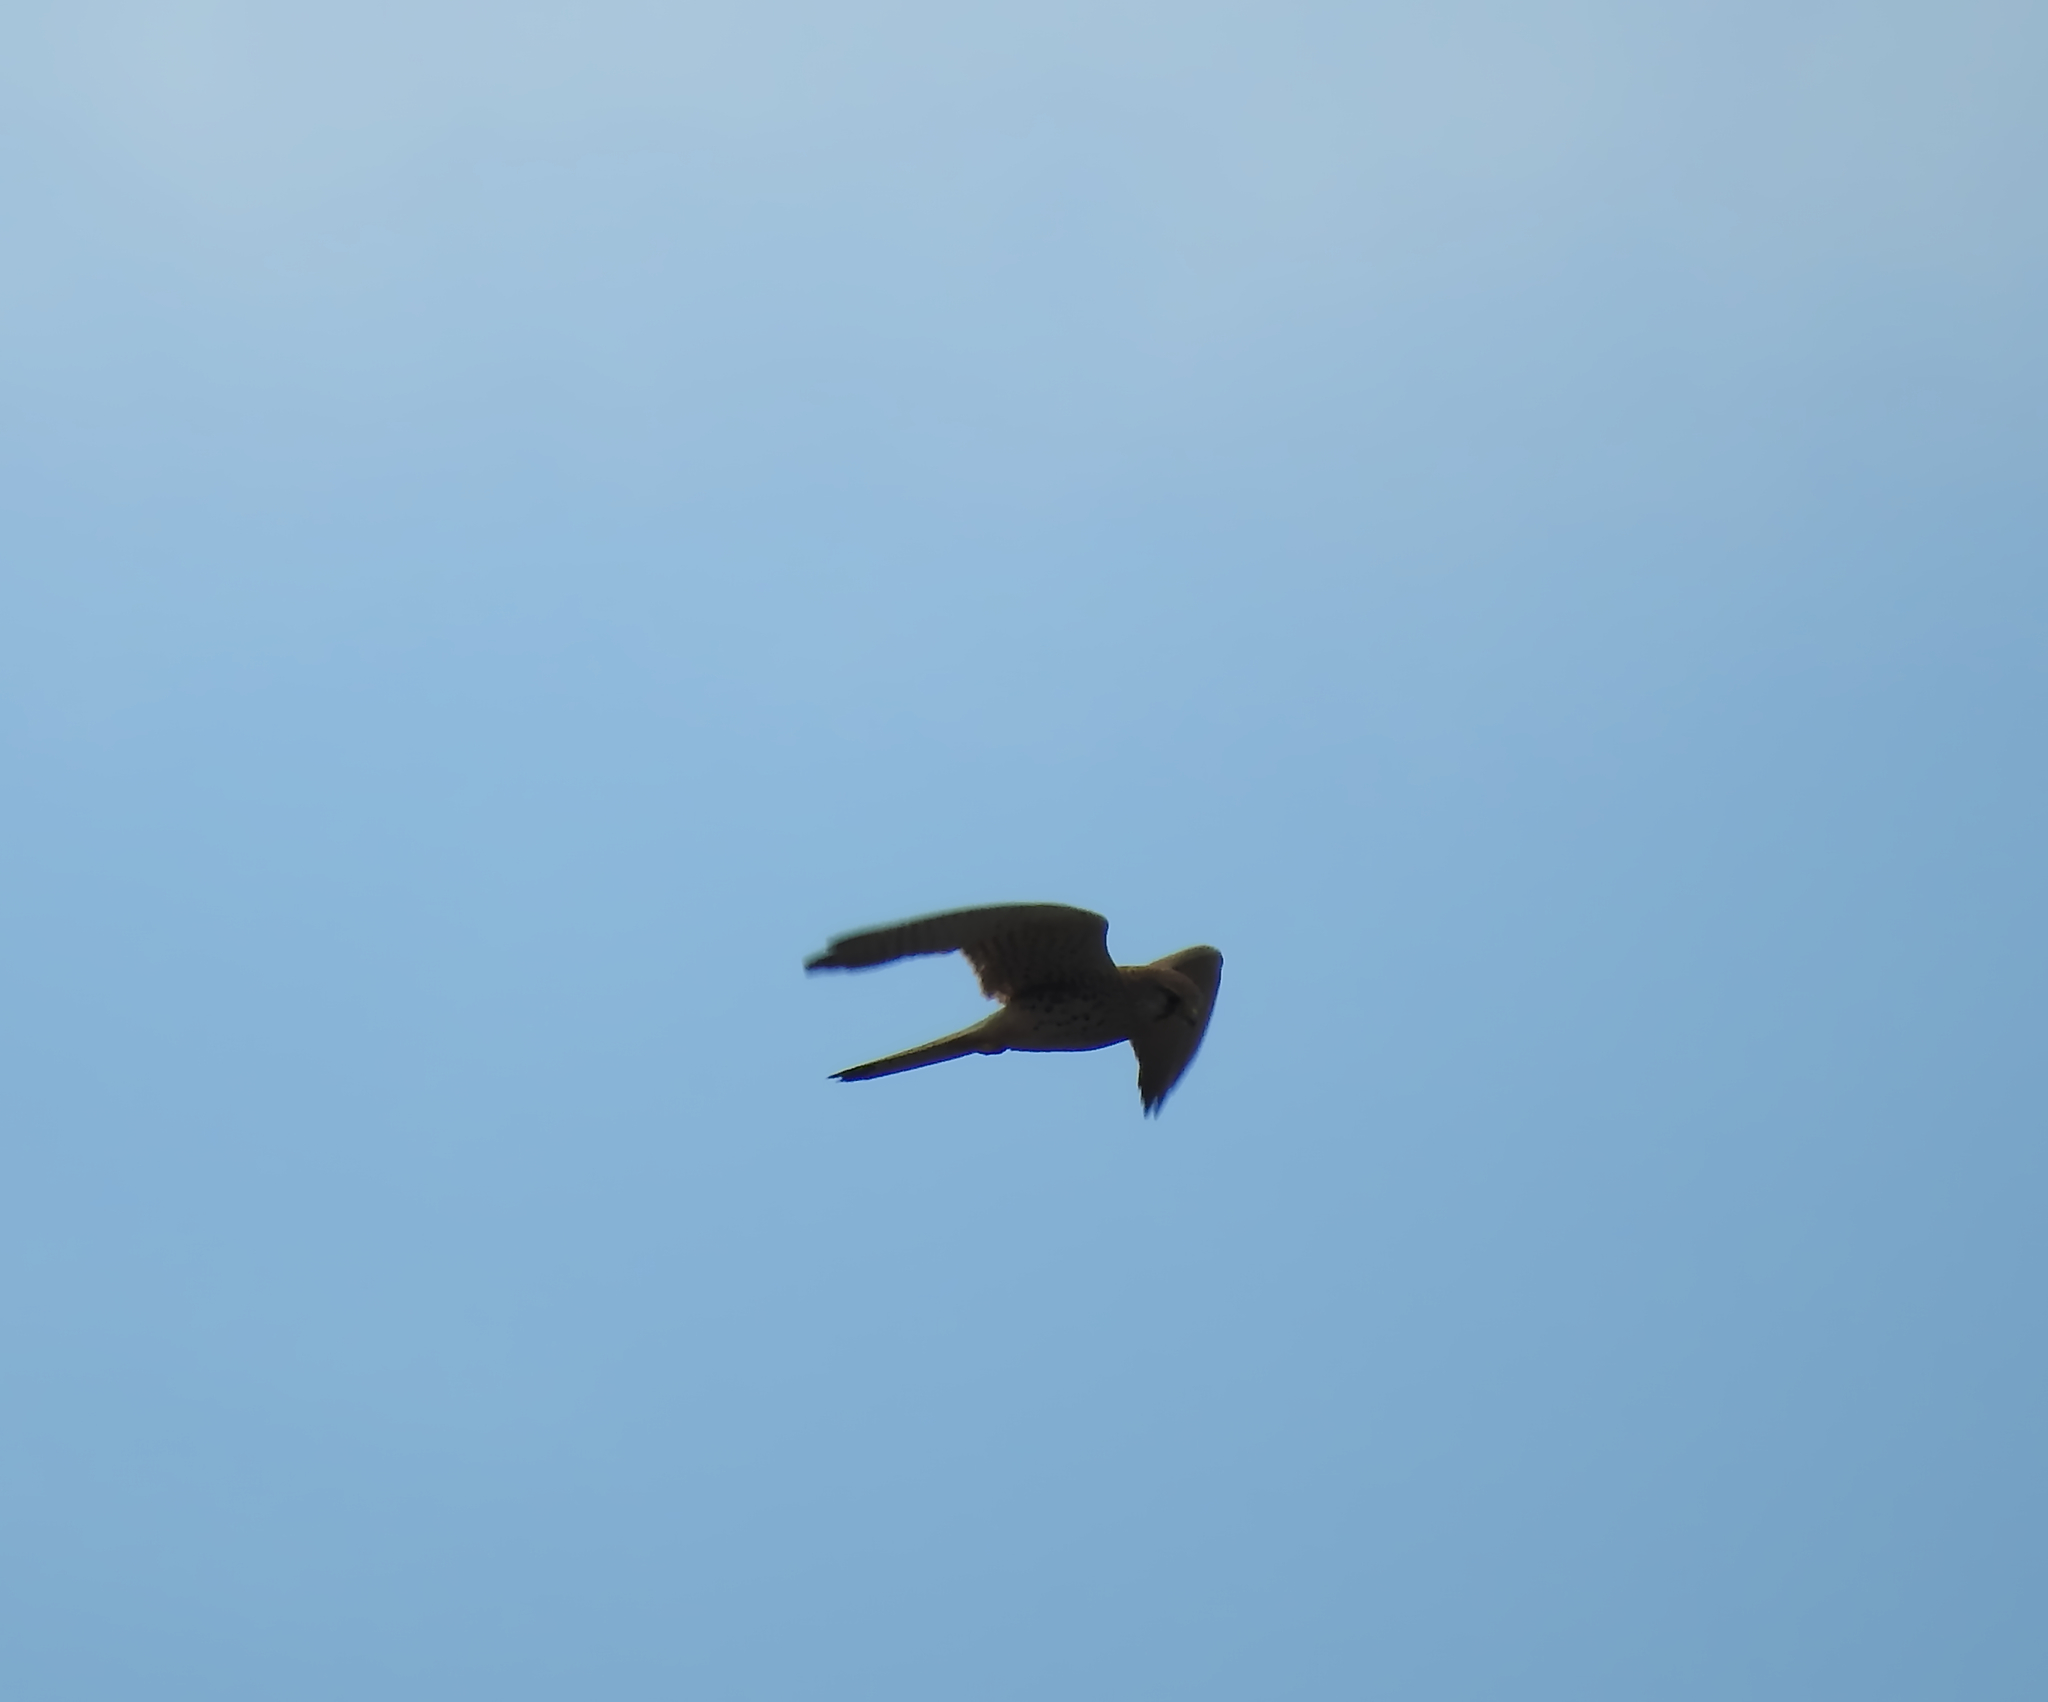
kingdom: Animalia
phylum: Chordata
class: Aves
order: Falconiformes
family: Falconidae
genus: Falco
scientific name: Falco tinnunculus
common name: Common kestrel
